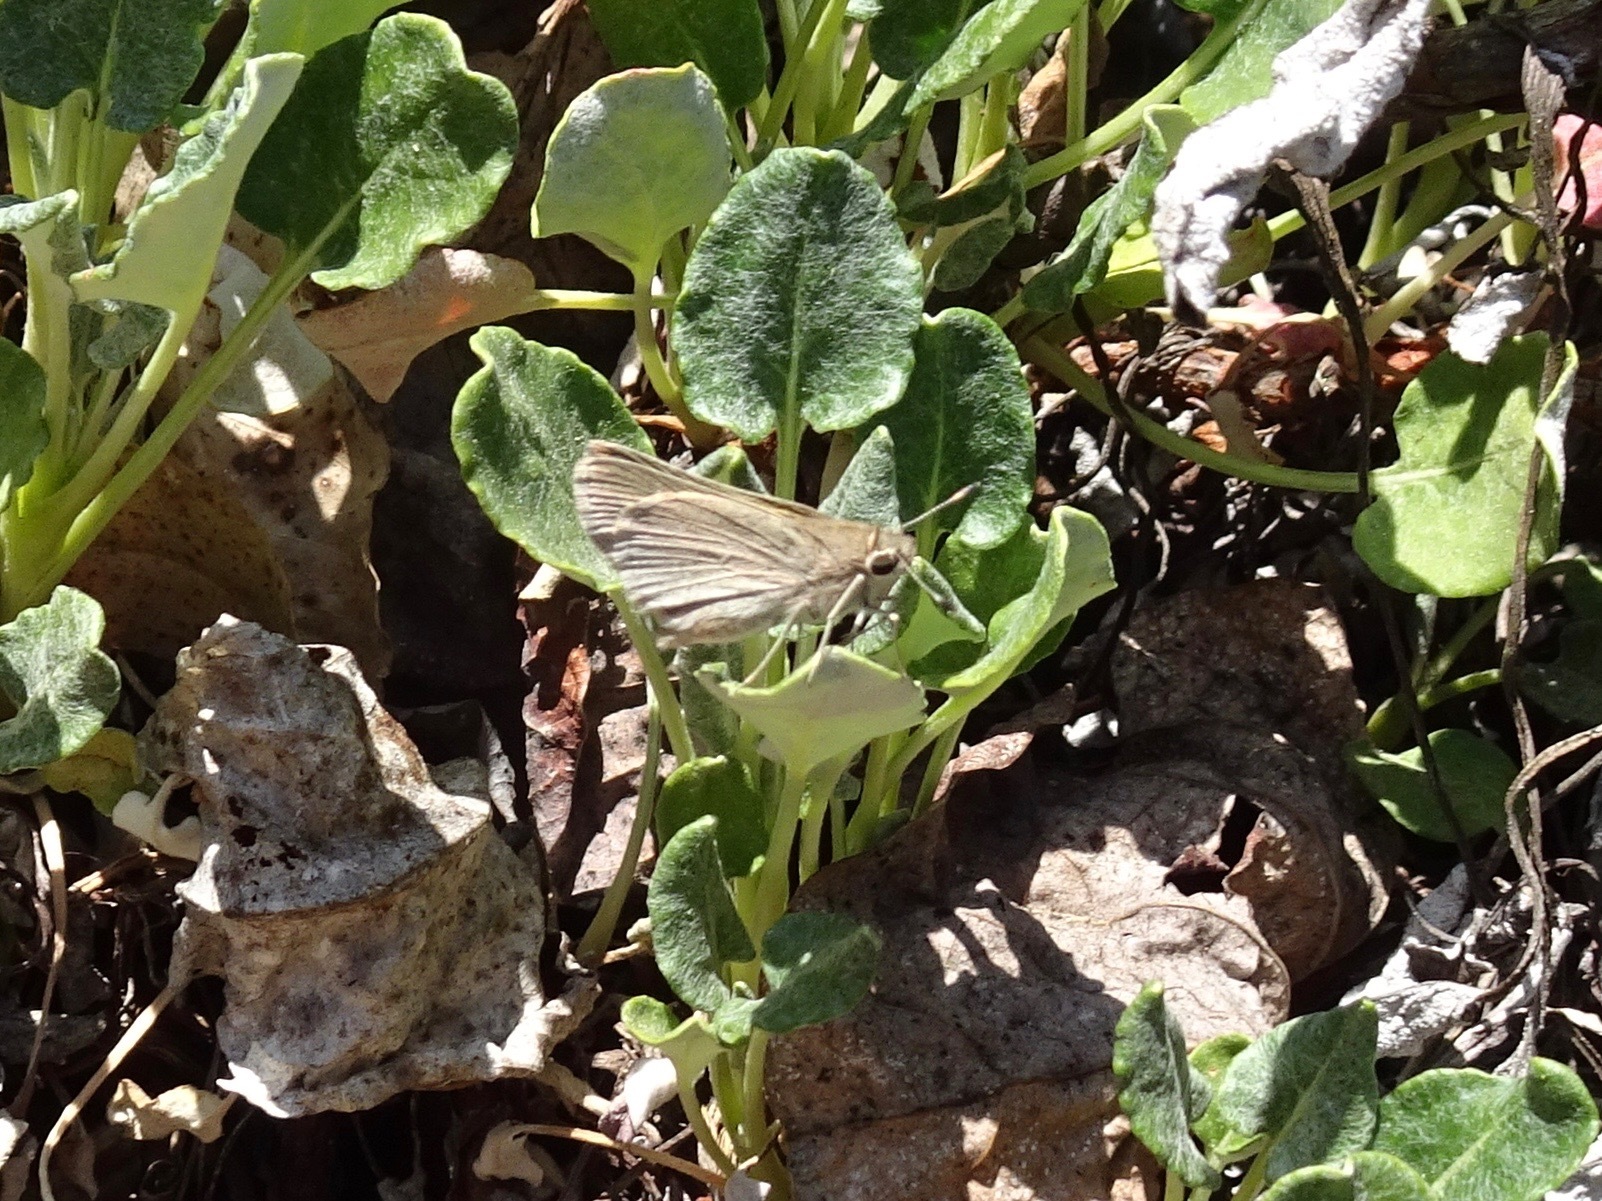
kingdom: Animalia
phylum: Arthropoda
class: Insecta
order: Lepidoptera
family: Hesperiidae
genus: Lerodea
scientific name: Lerodea eufala
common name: Eufala skipper
